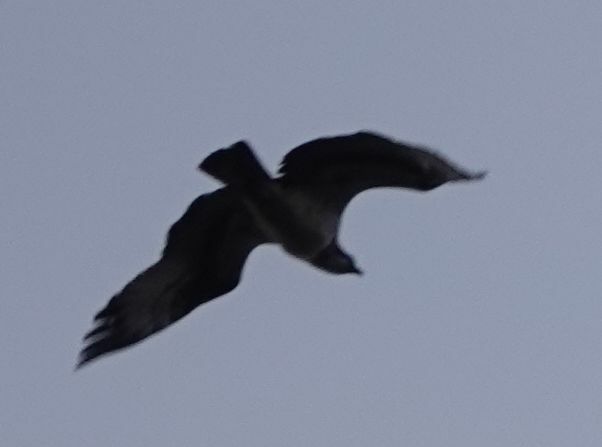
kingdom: Animalia
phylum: Chordata
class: Aves
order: Accipitriformes
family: Pandionidae
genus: Pandion
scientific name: Pandion haliaetus
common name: Osprey
